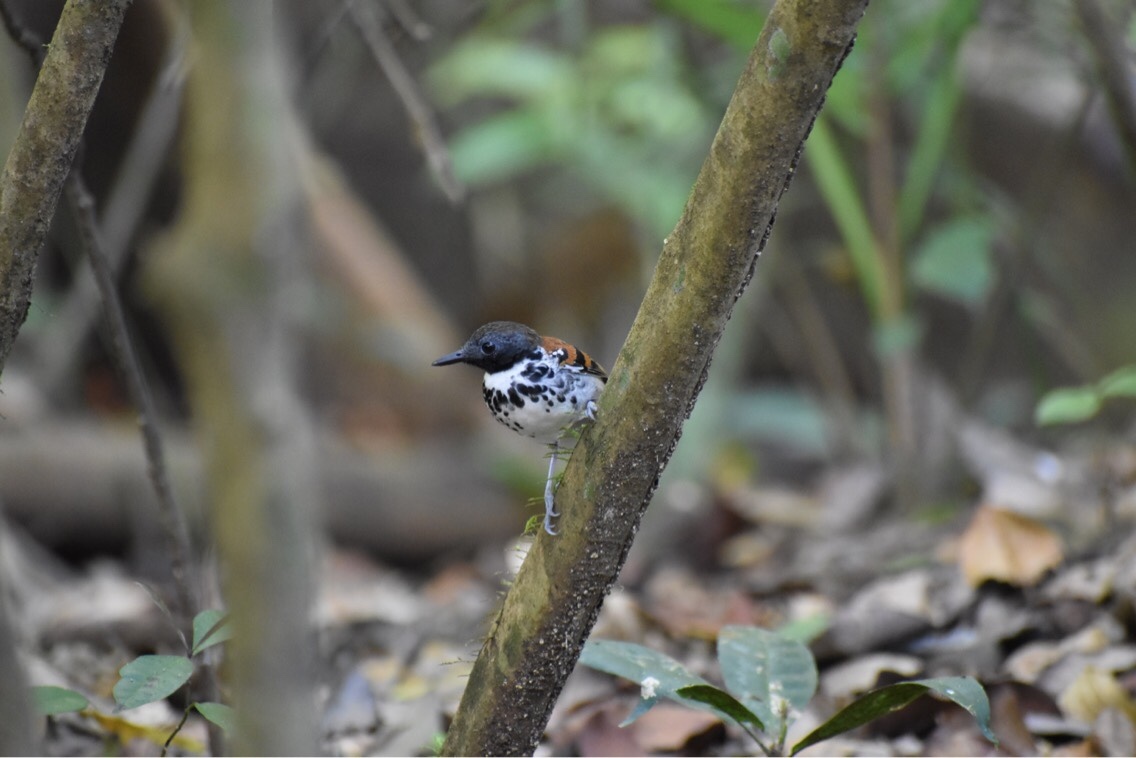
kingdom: Animalia
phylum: Chordata
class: Aves
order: Passeriformes
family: Thamnophilidae
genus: Hylophylax
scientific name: Hylophylax naevioides
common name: Spotted antbird
